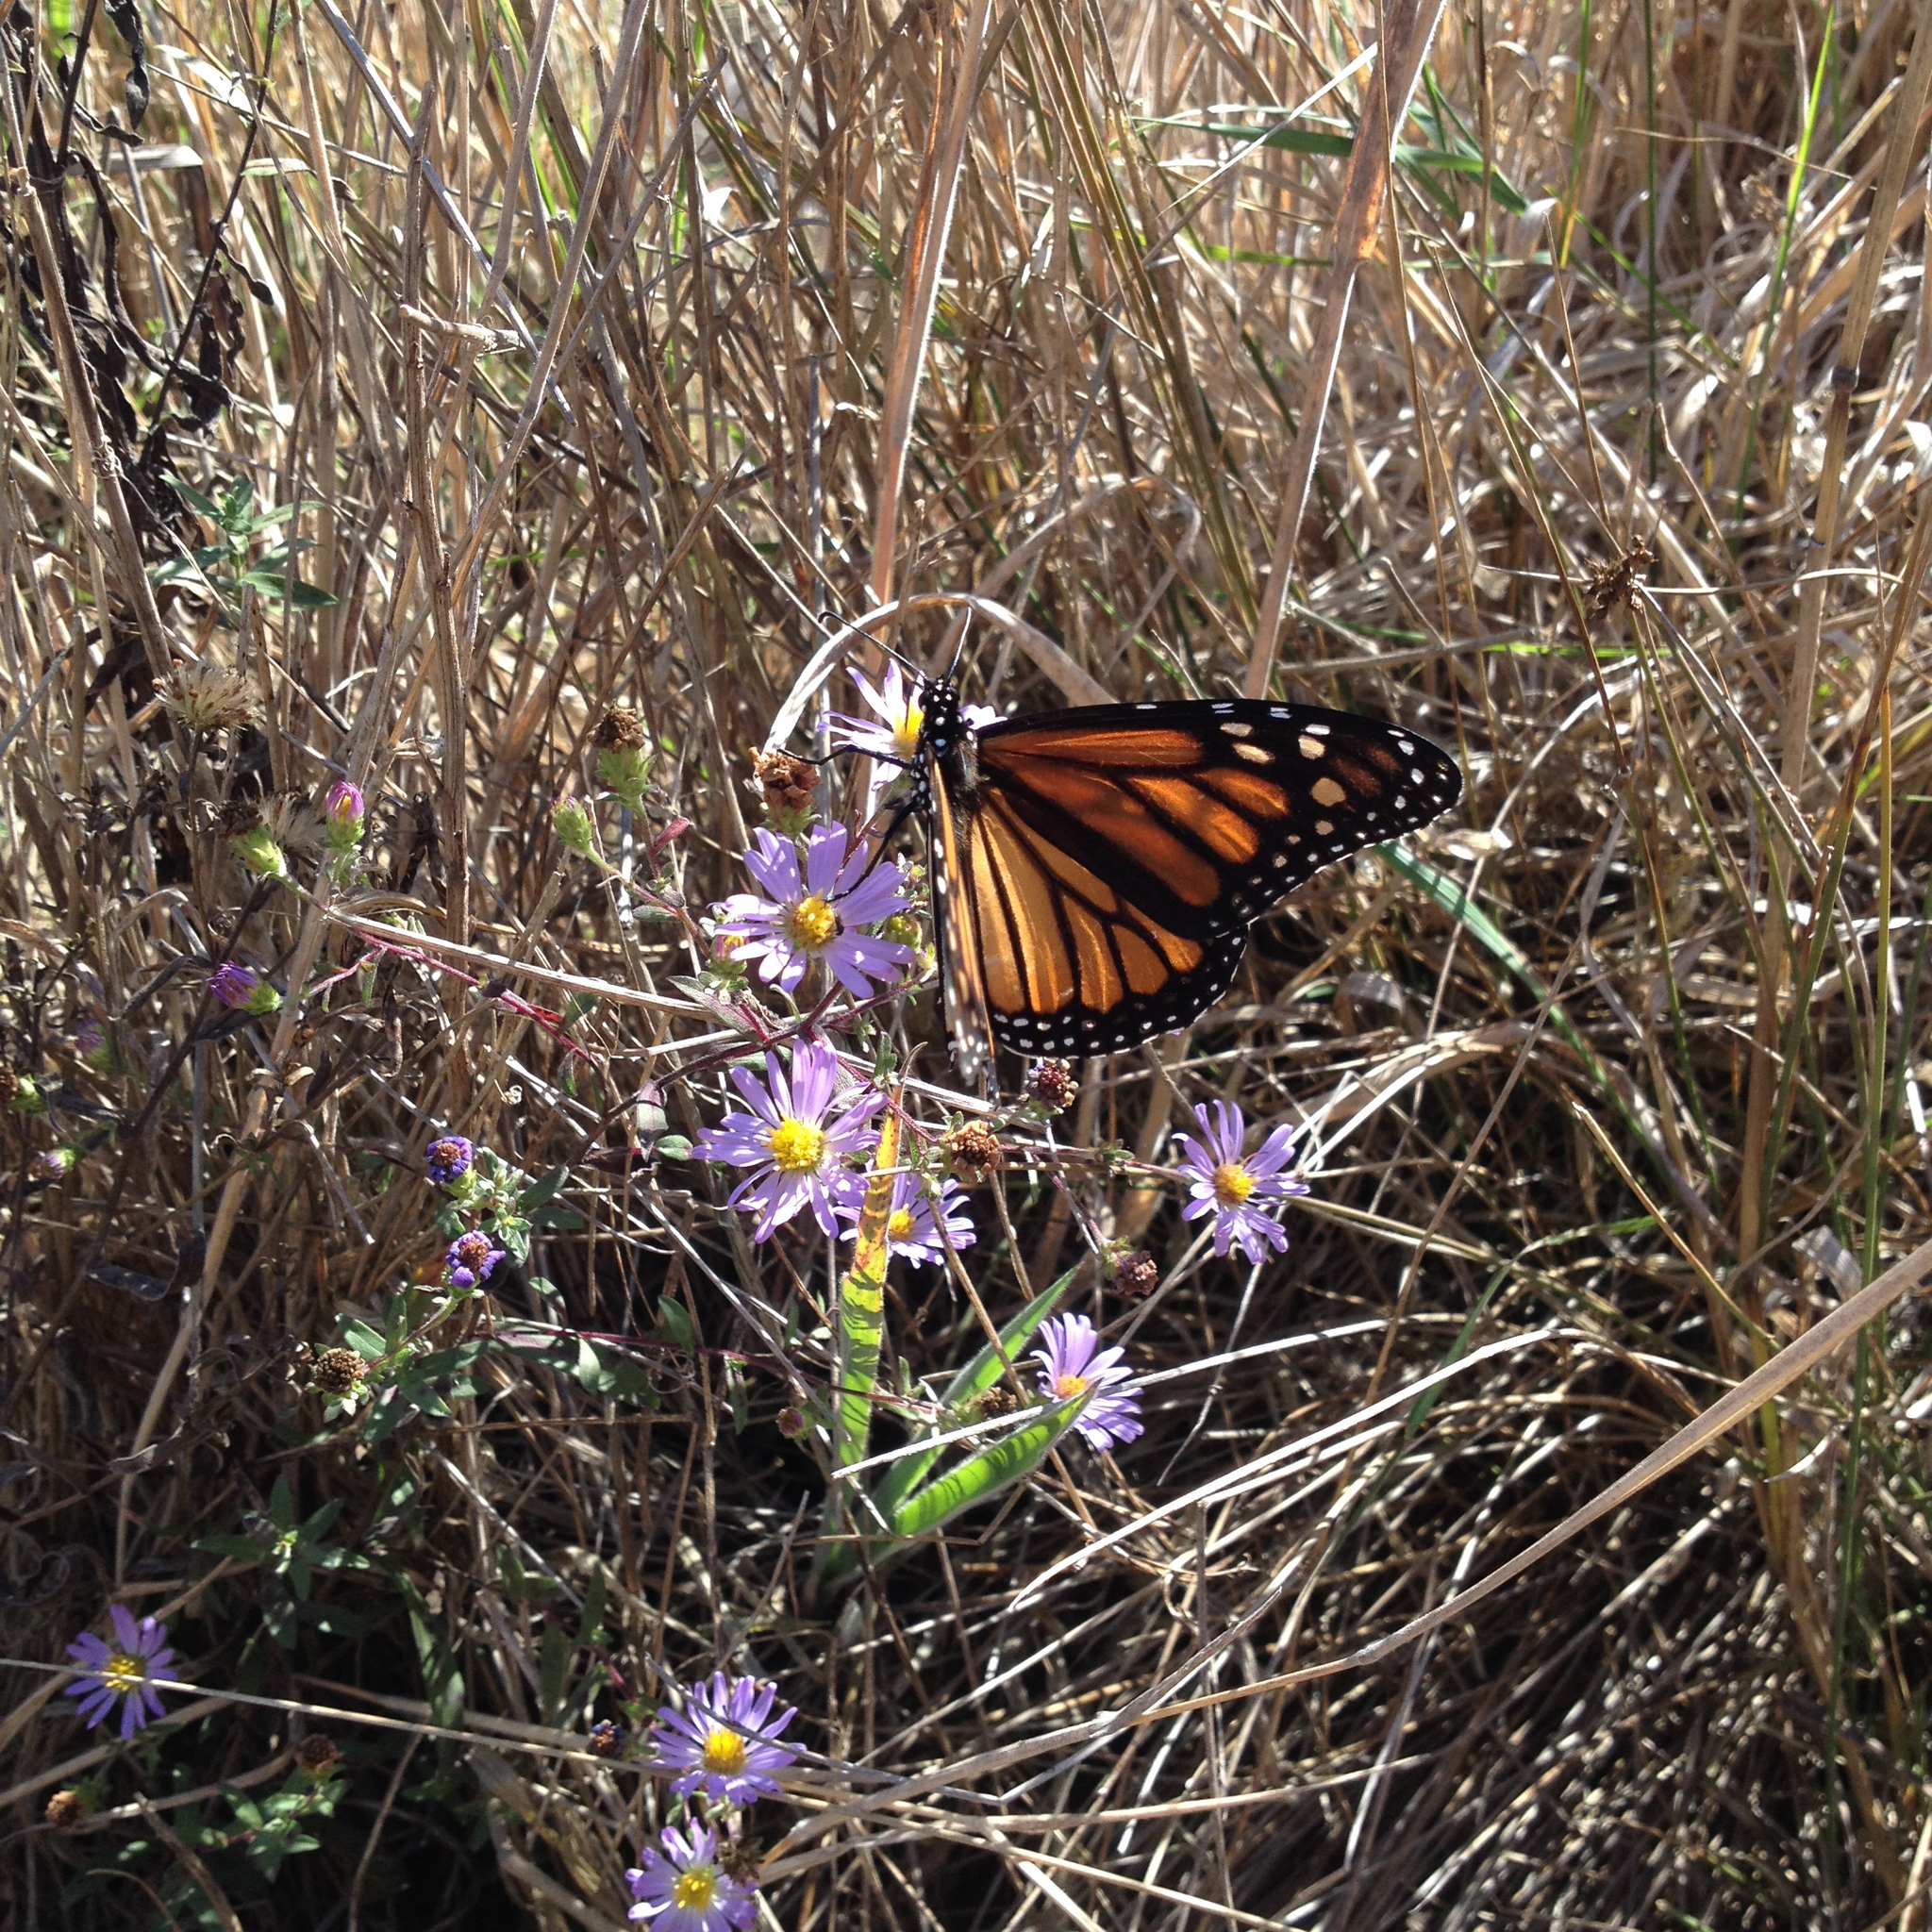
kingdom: Animalia
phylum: Arthropoda
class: Insecta
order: Lepidoptera
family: Nymphalidae
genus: Danaus
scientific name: Danaus plexippus
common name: Monarch
